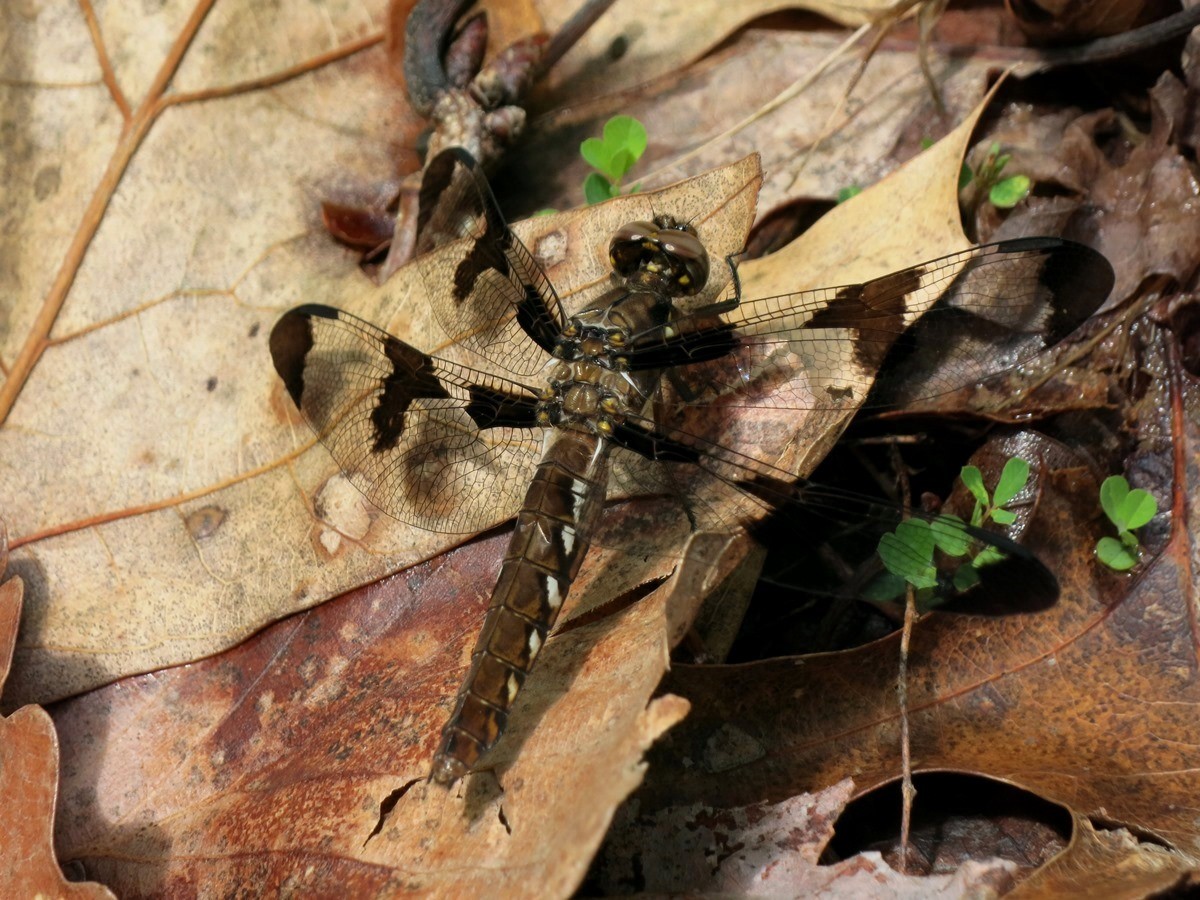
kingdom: Animalia
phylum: Arthropoda
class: Insecta
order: Odonata
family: Libellulidae
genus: Plathemis
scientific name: Plathemis lydia
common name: Common whitetail
